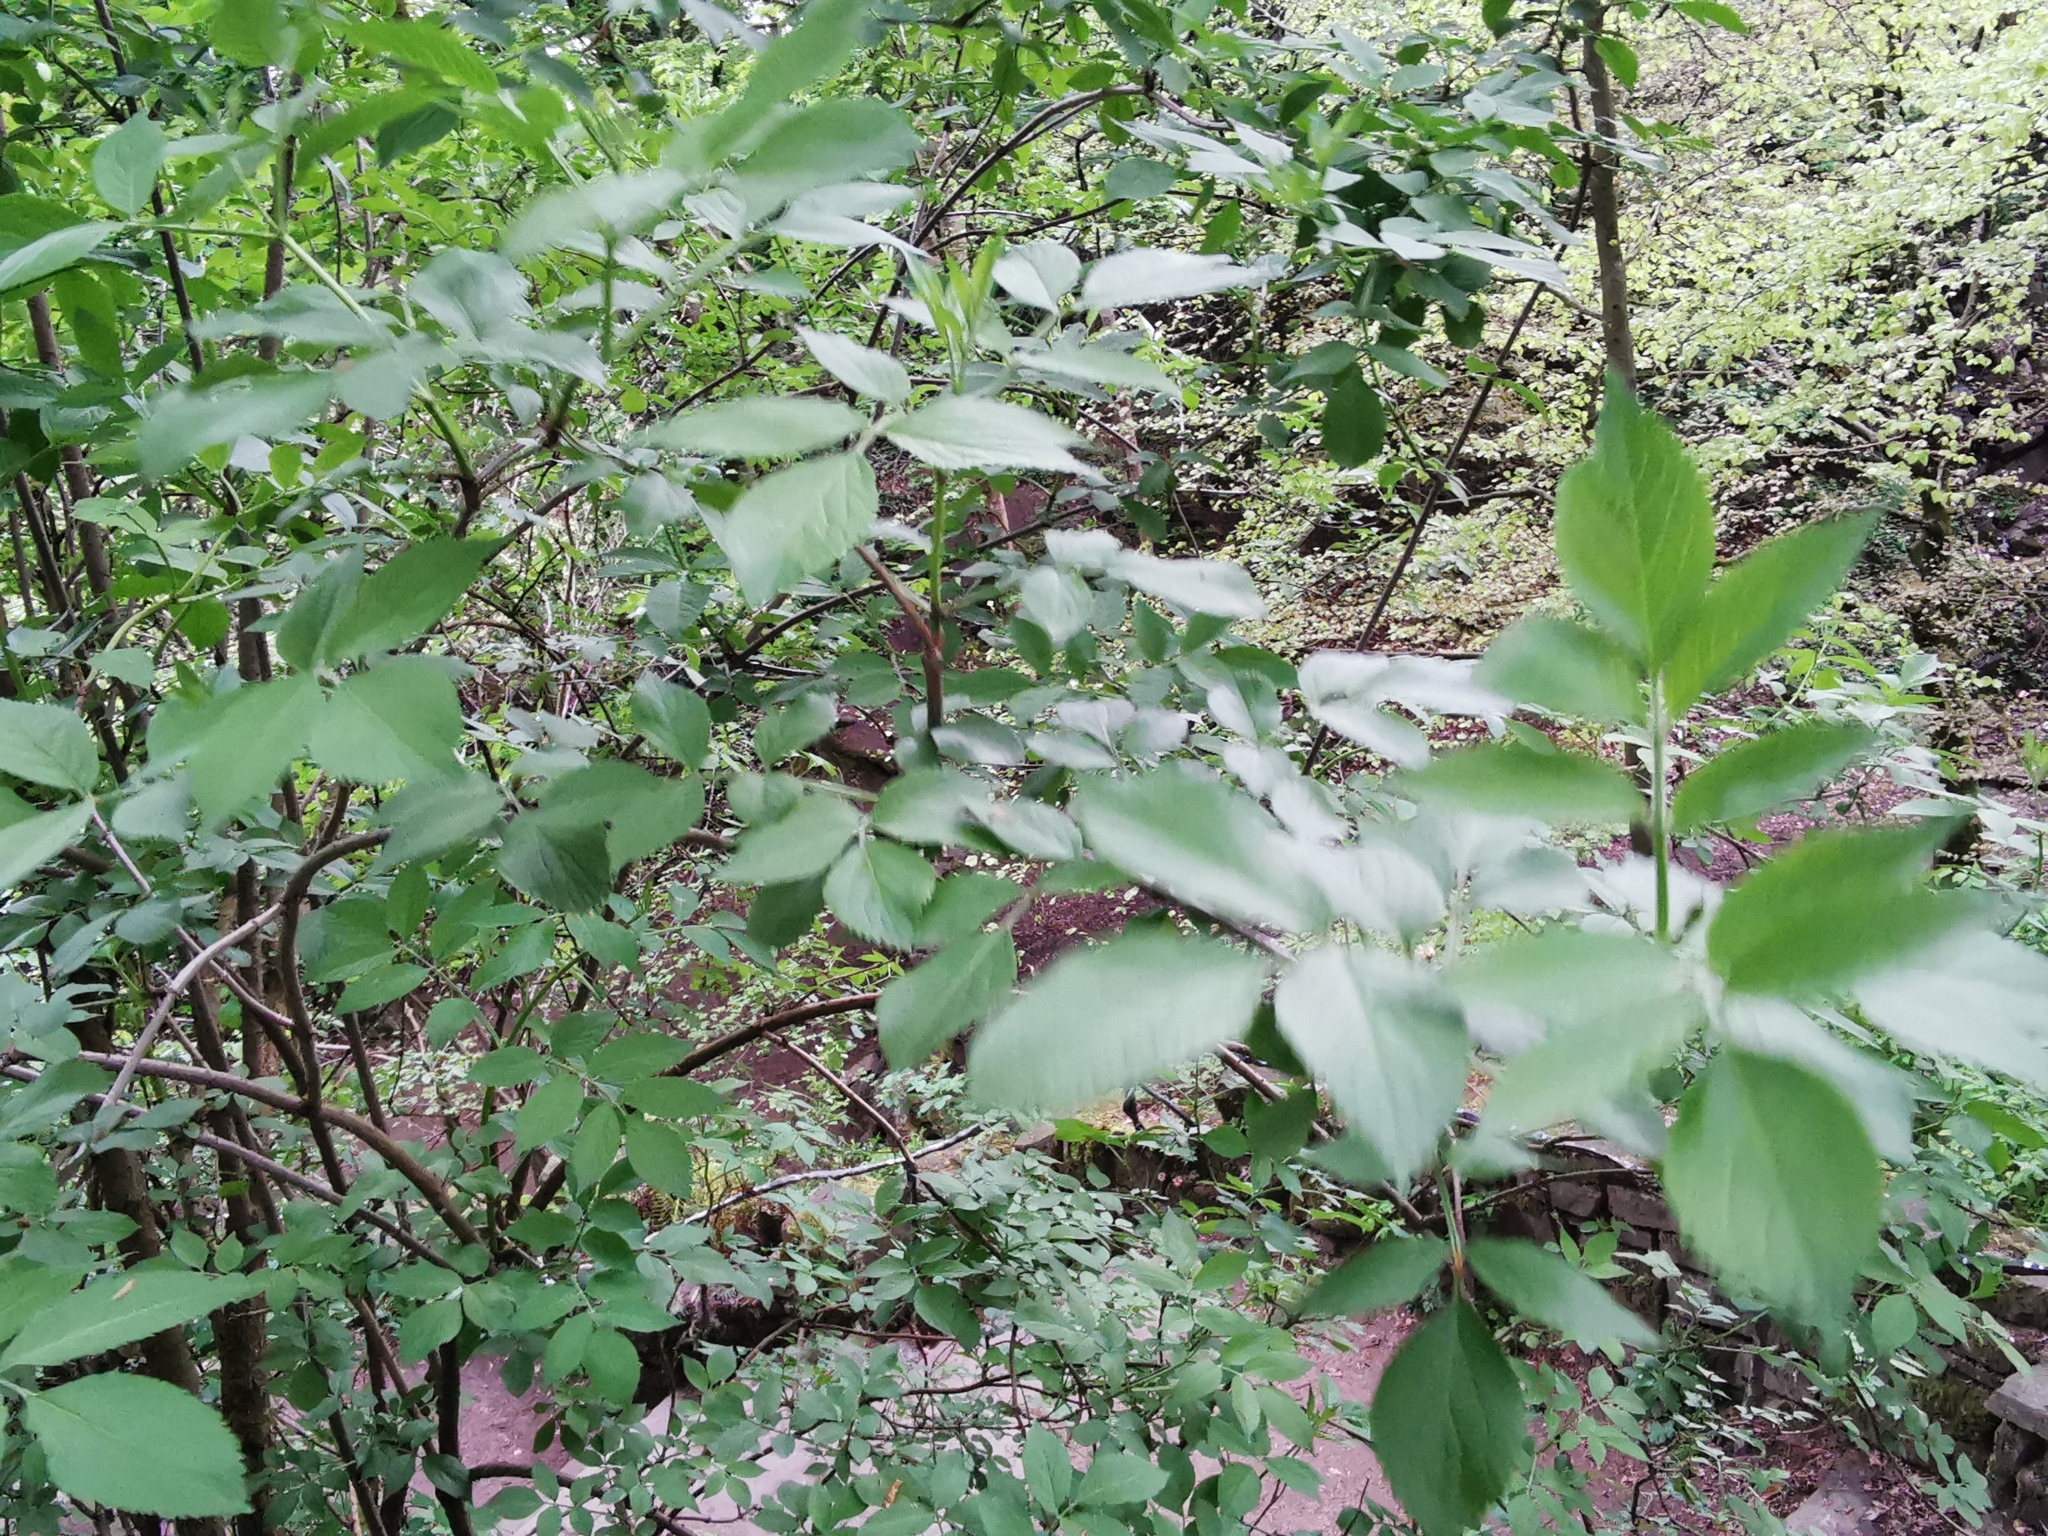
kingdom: Plantae
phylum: Tracheophyta
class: Magnoliopsida
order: Dipsacales
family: Viburnaceae
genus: Sambucus
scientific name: Sambucus nigra
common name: Elder
